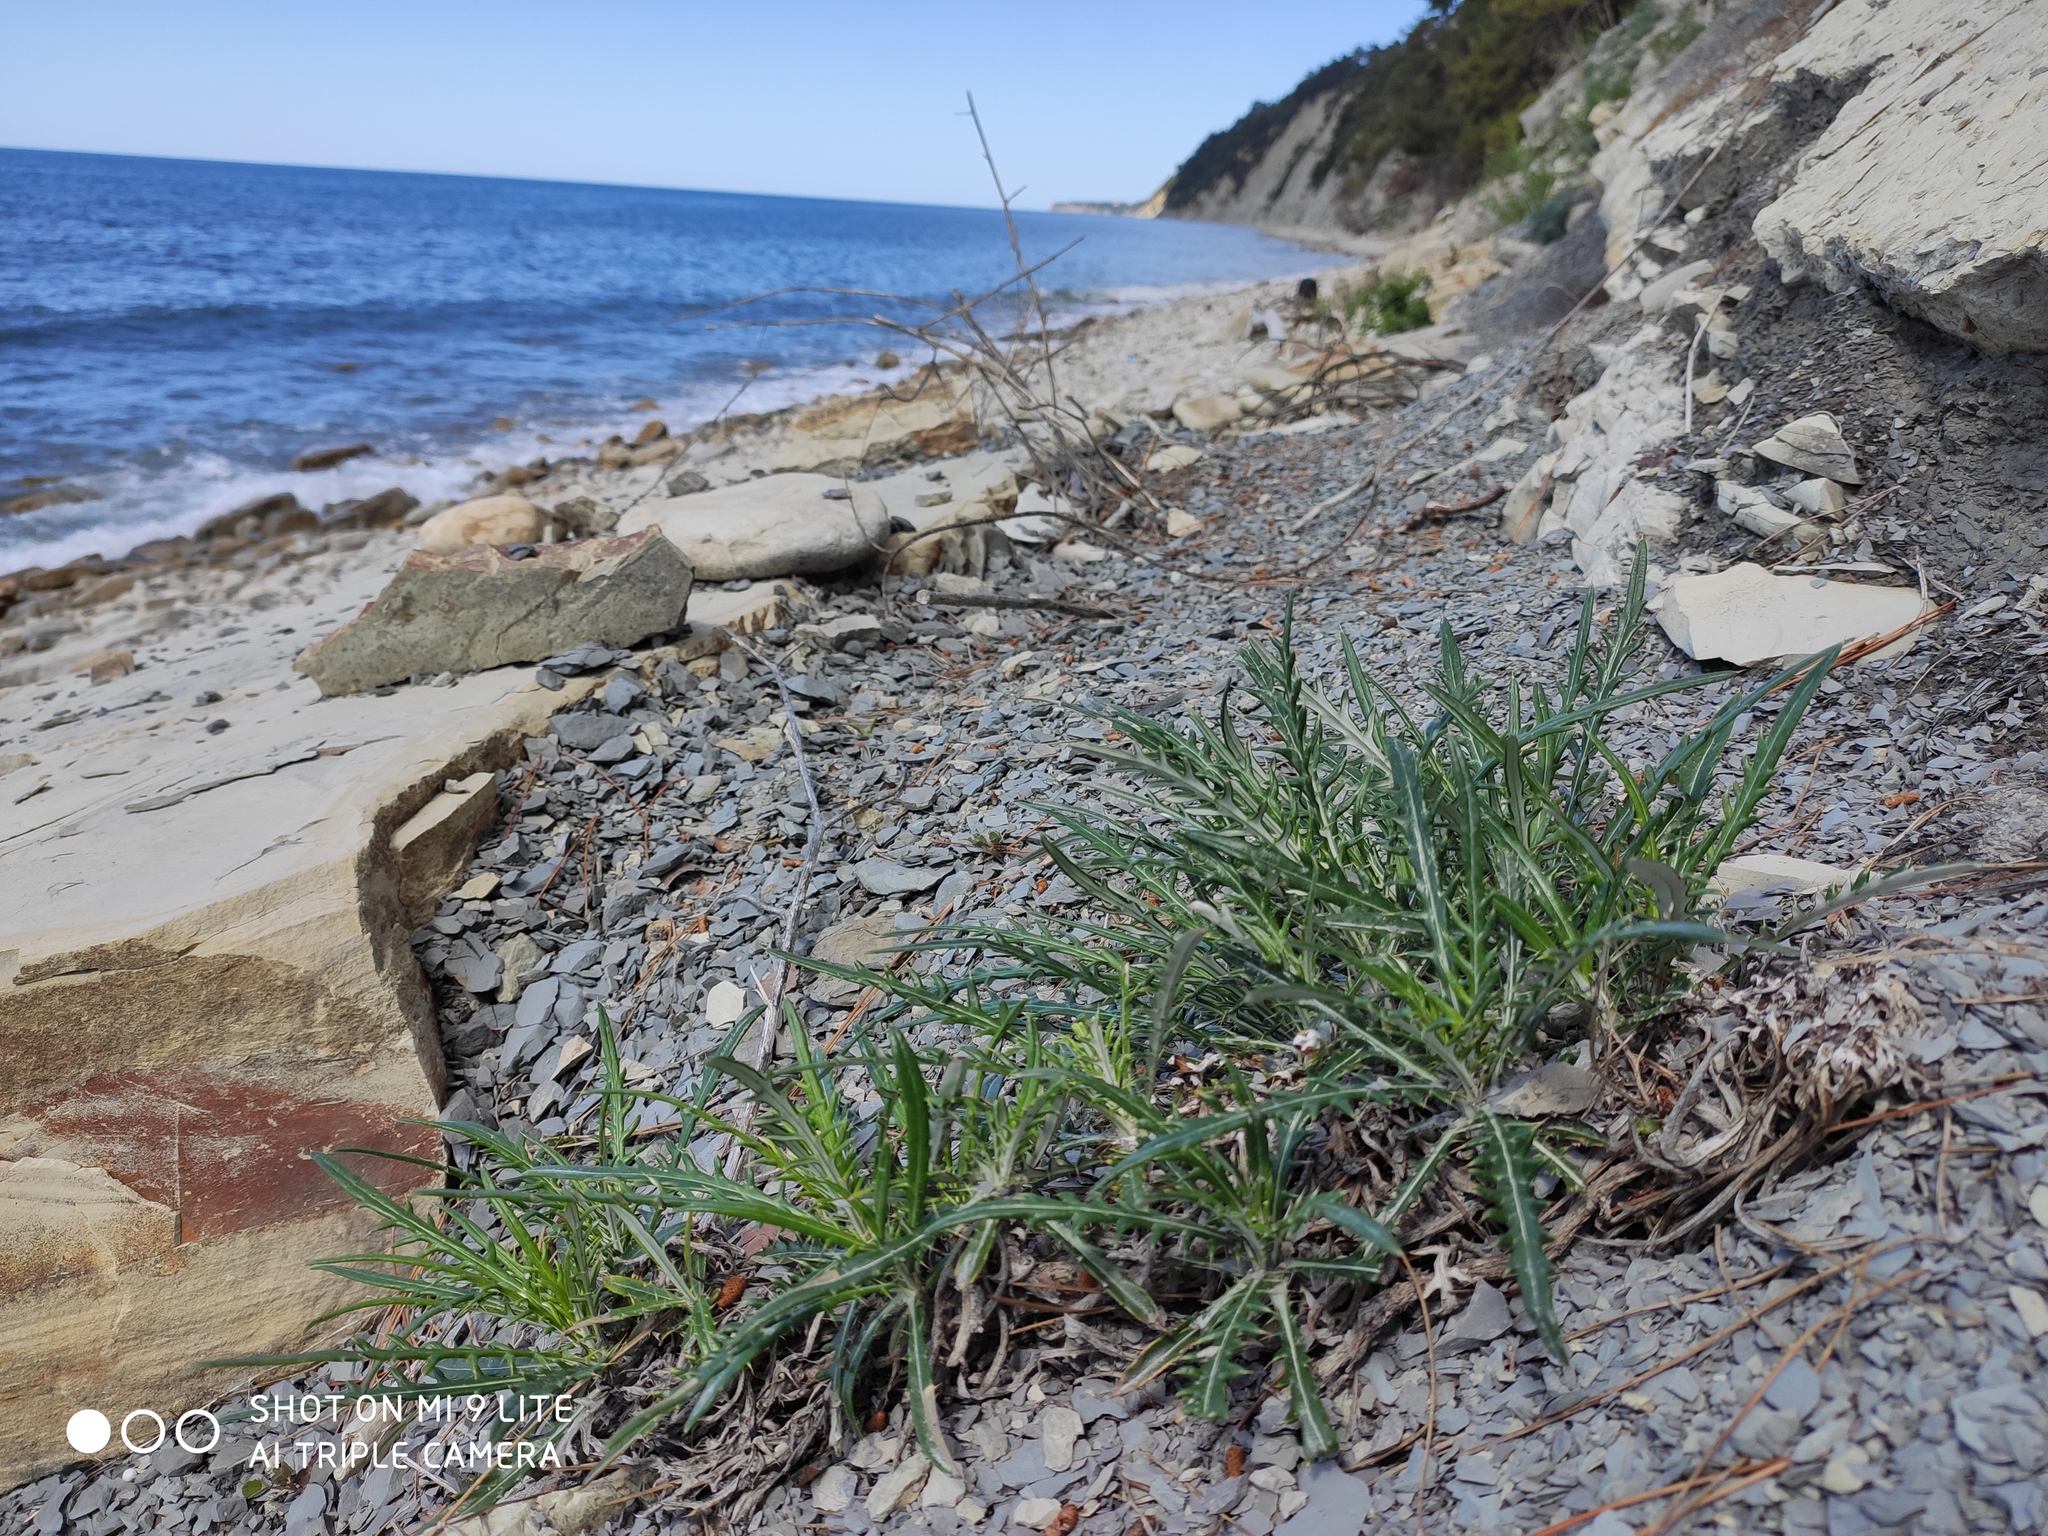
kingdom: Plantae
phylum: Tracheophyta
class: Magnoliopsida
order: Asterales
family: Asteraceae
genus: Ptilostemon
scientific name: Ptilostemon echinocephalus
